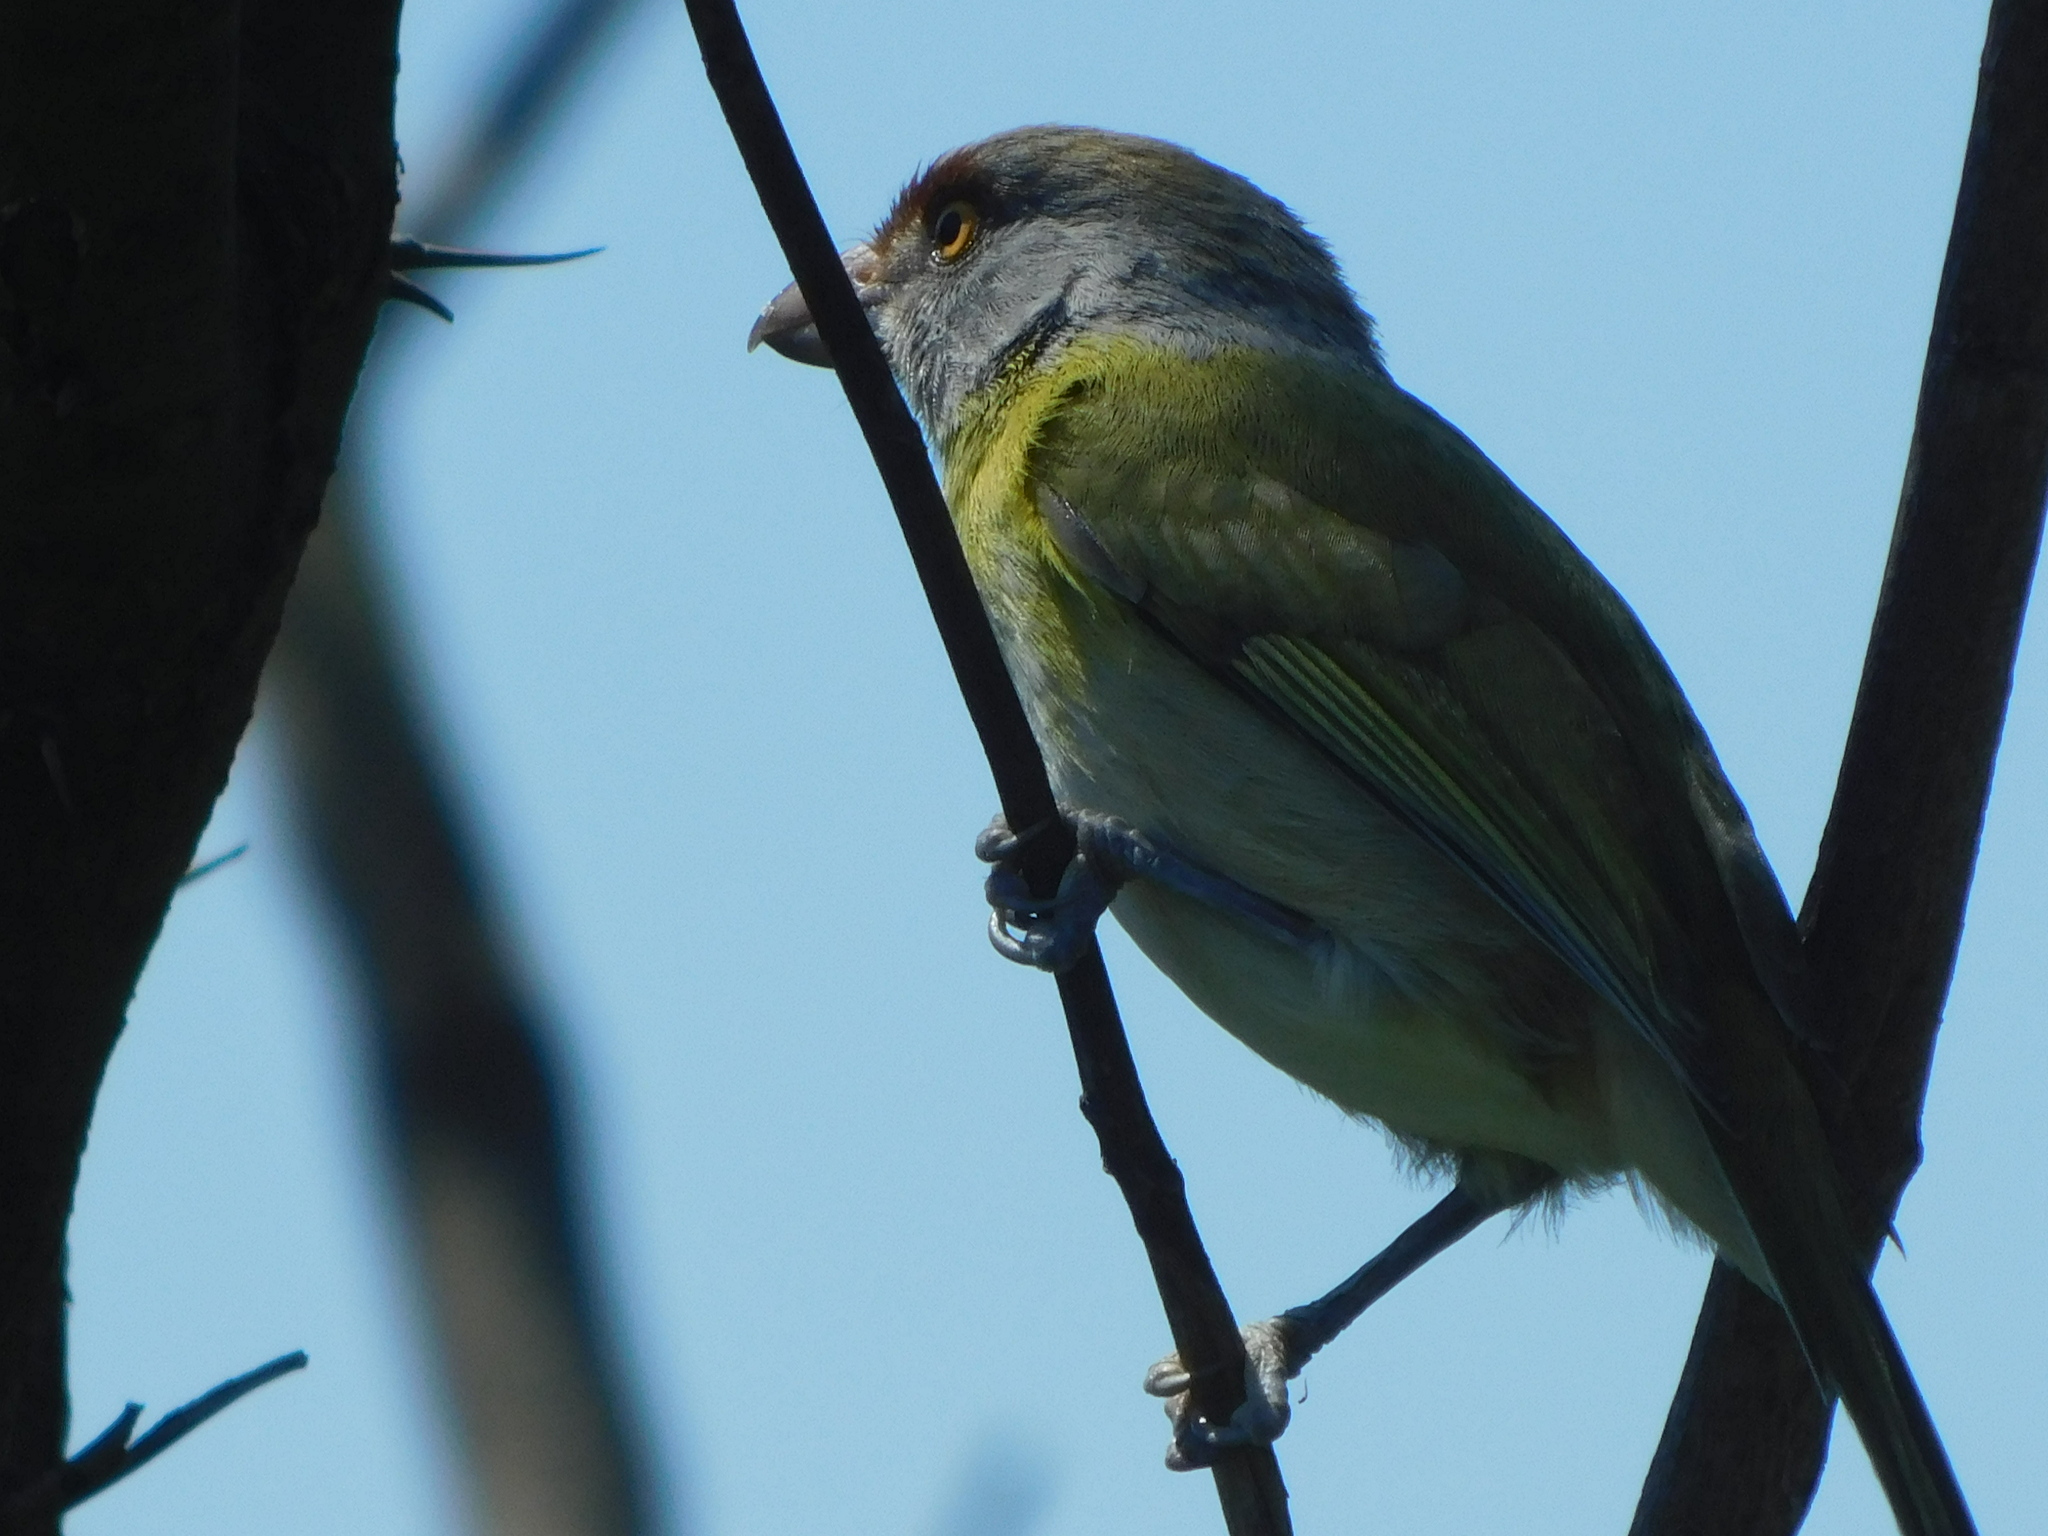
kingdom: Animalia
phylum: Chordata
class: Aves
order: Passeriformes
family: Vireonidae
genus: Cyclarhis
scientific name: Cyclarhis gujanensis
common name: Rufous-browed peppershrike
